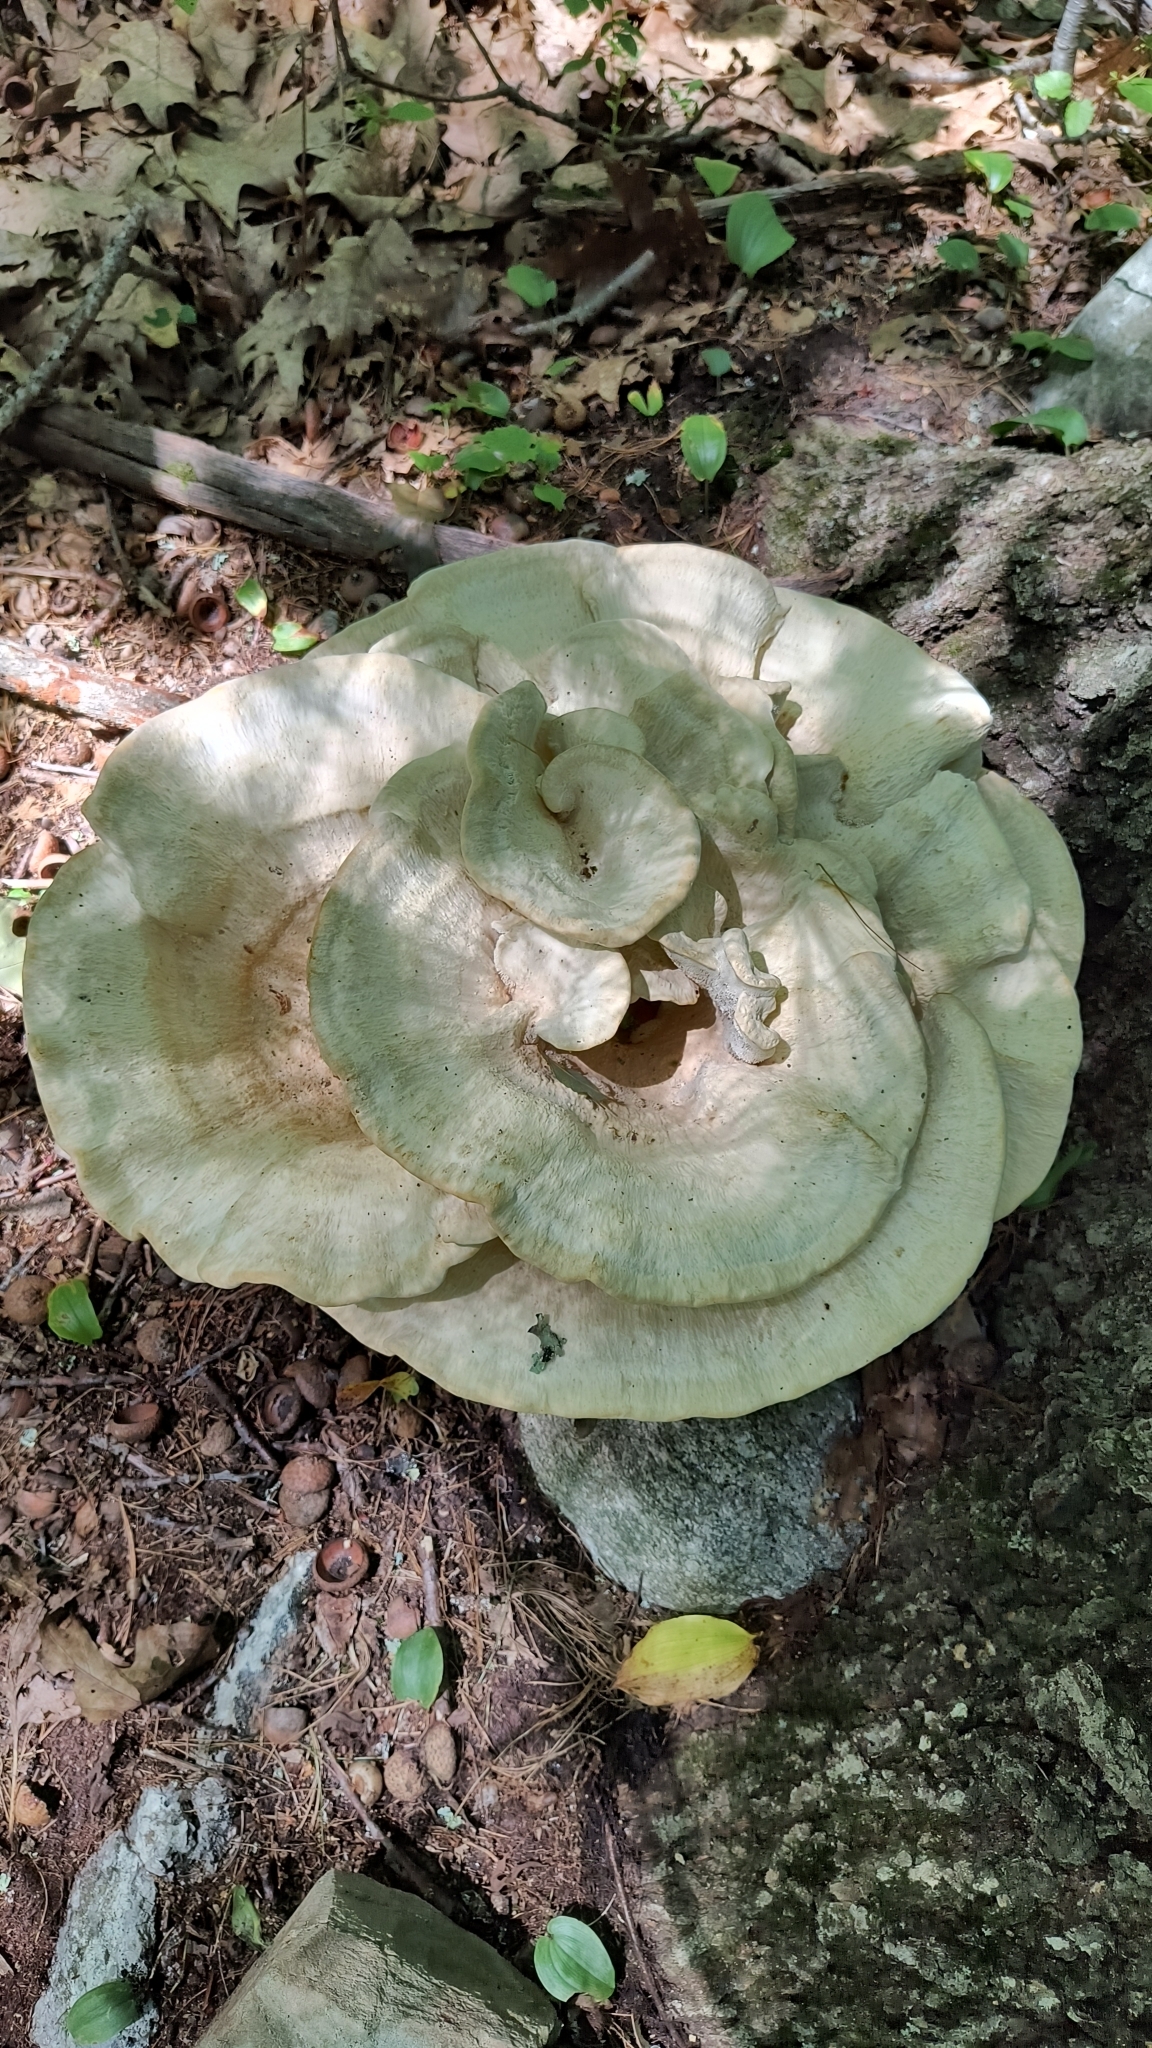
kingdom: Fungi
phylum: Basidiomycota
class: Agaricomycetes
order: Russulales
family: Bondarzewiaceae
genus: Bondarzewia
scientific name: Bondarzewia berkeleyi
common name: Berkeley's polypore
